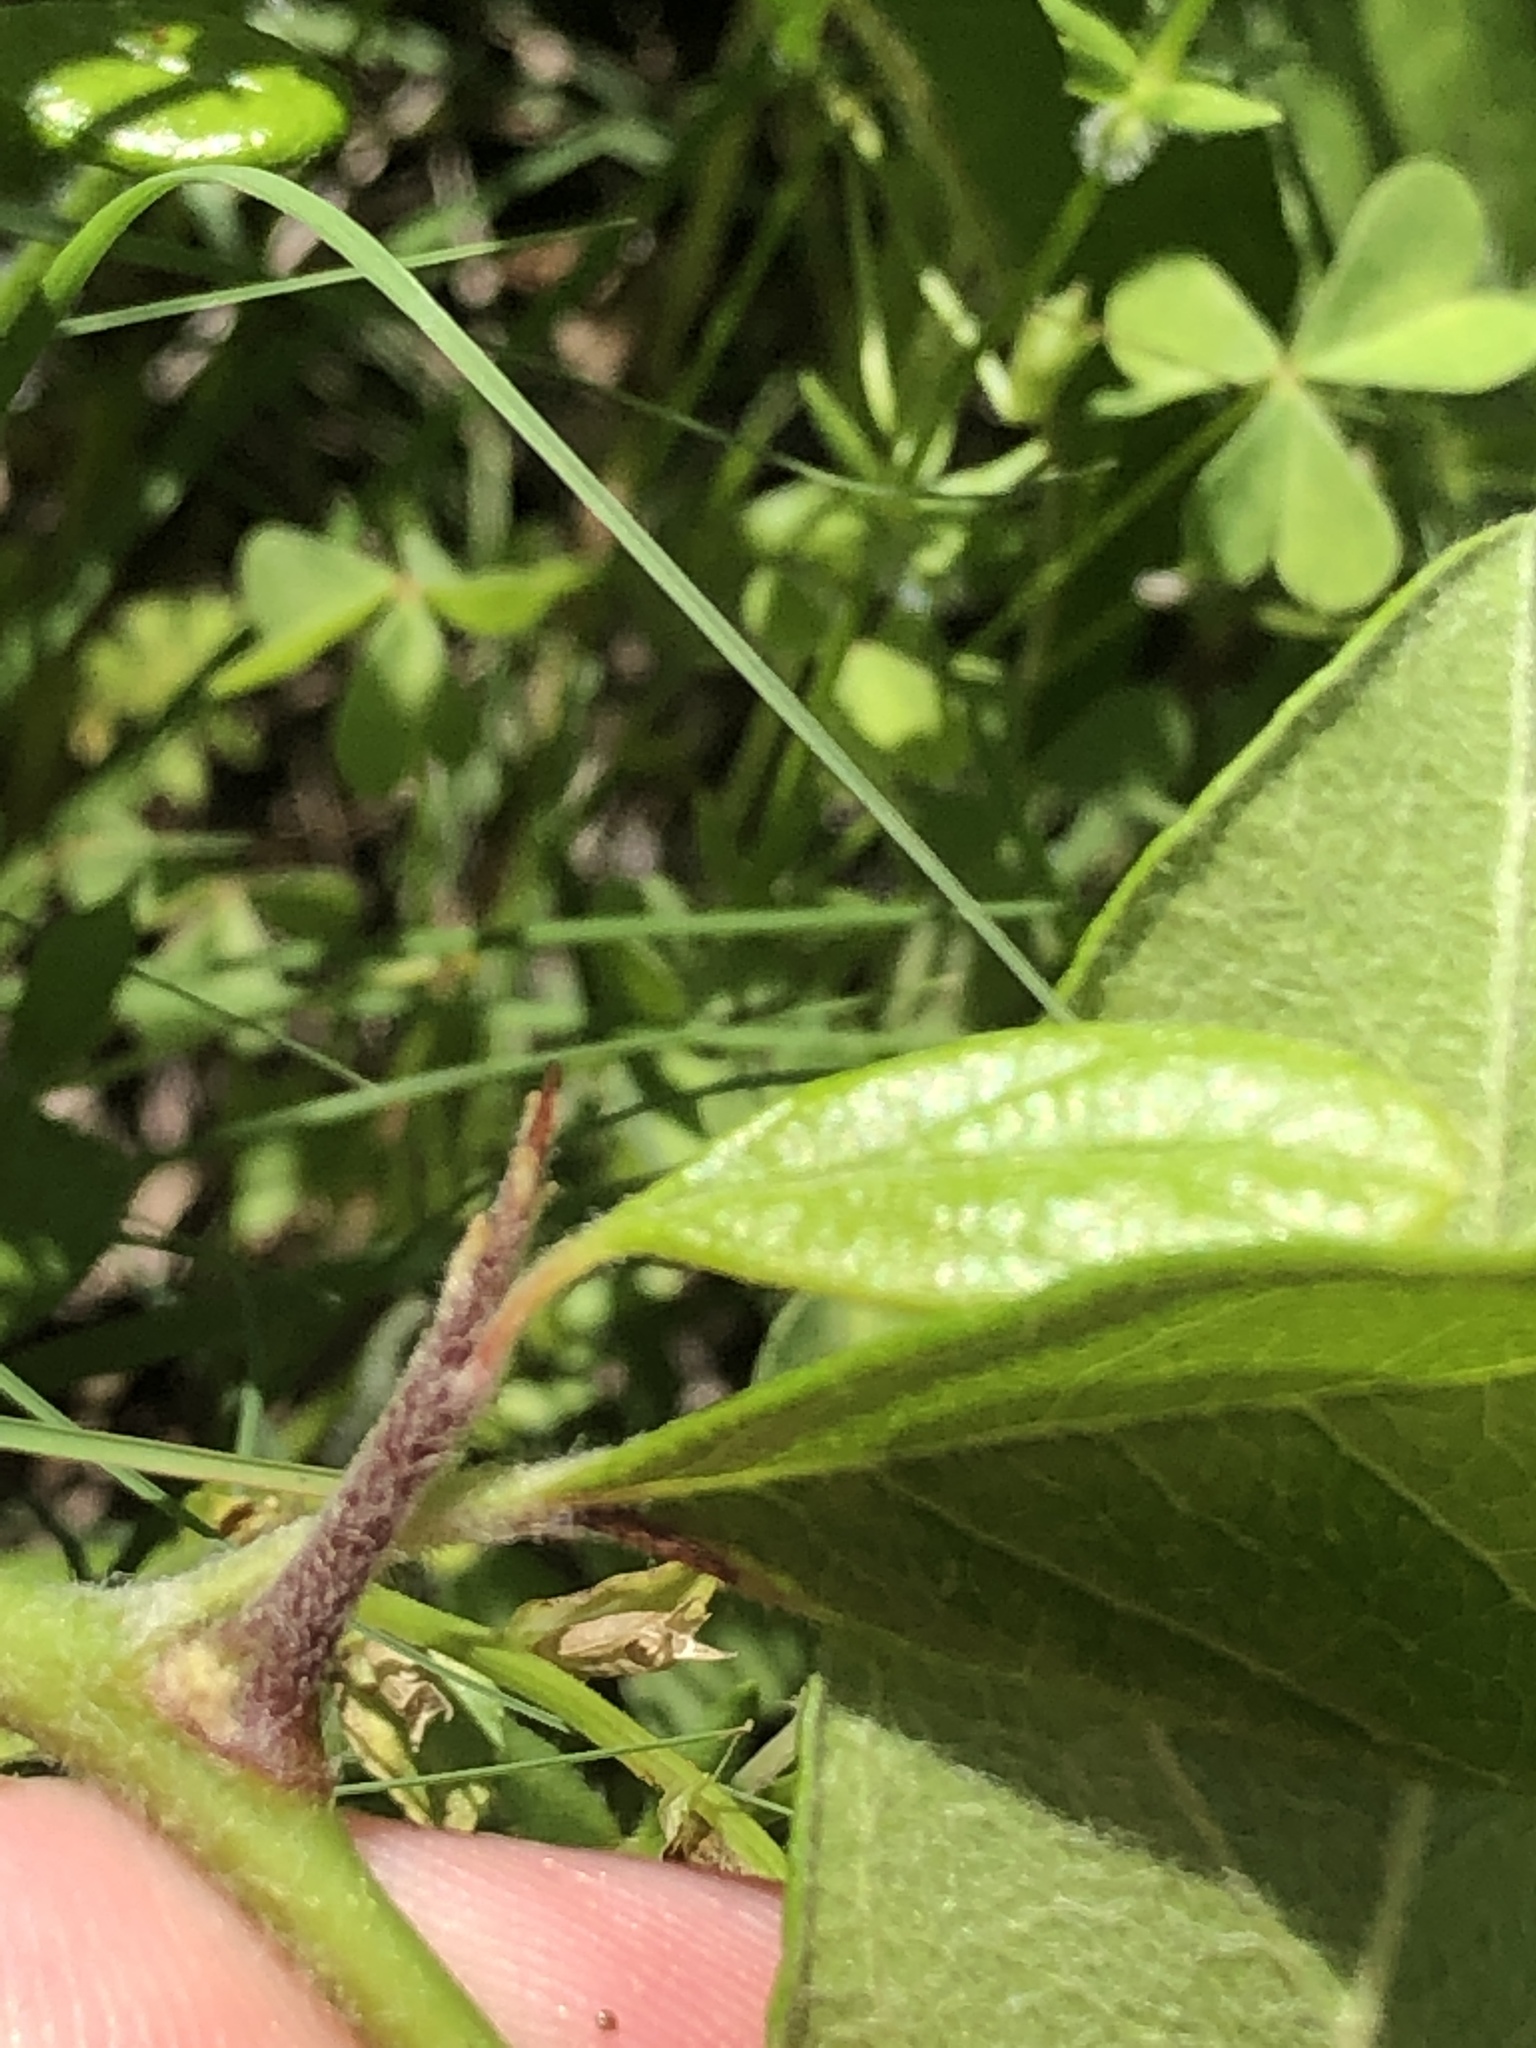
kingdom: Plantae
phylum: Tracheophyta
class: Magnoliopsida
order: Ericales
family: Sapotaceae
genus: Sideroxylon
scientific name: Sideroxylon lanuginosum
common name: Chittamwood
